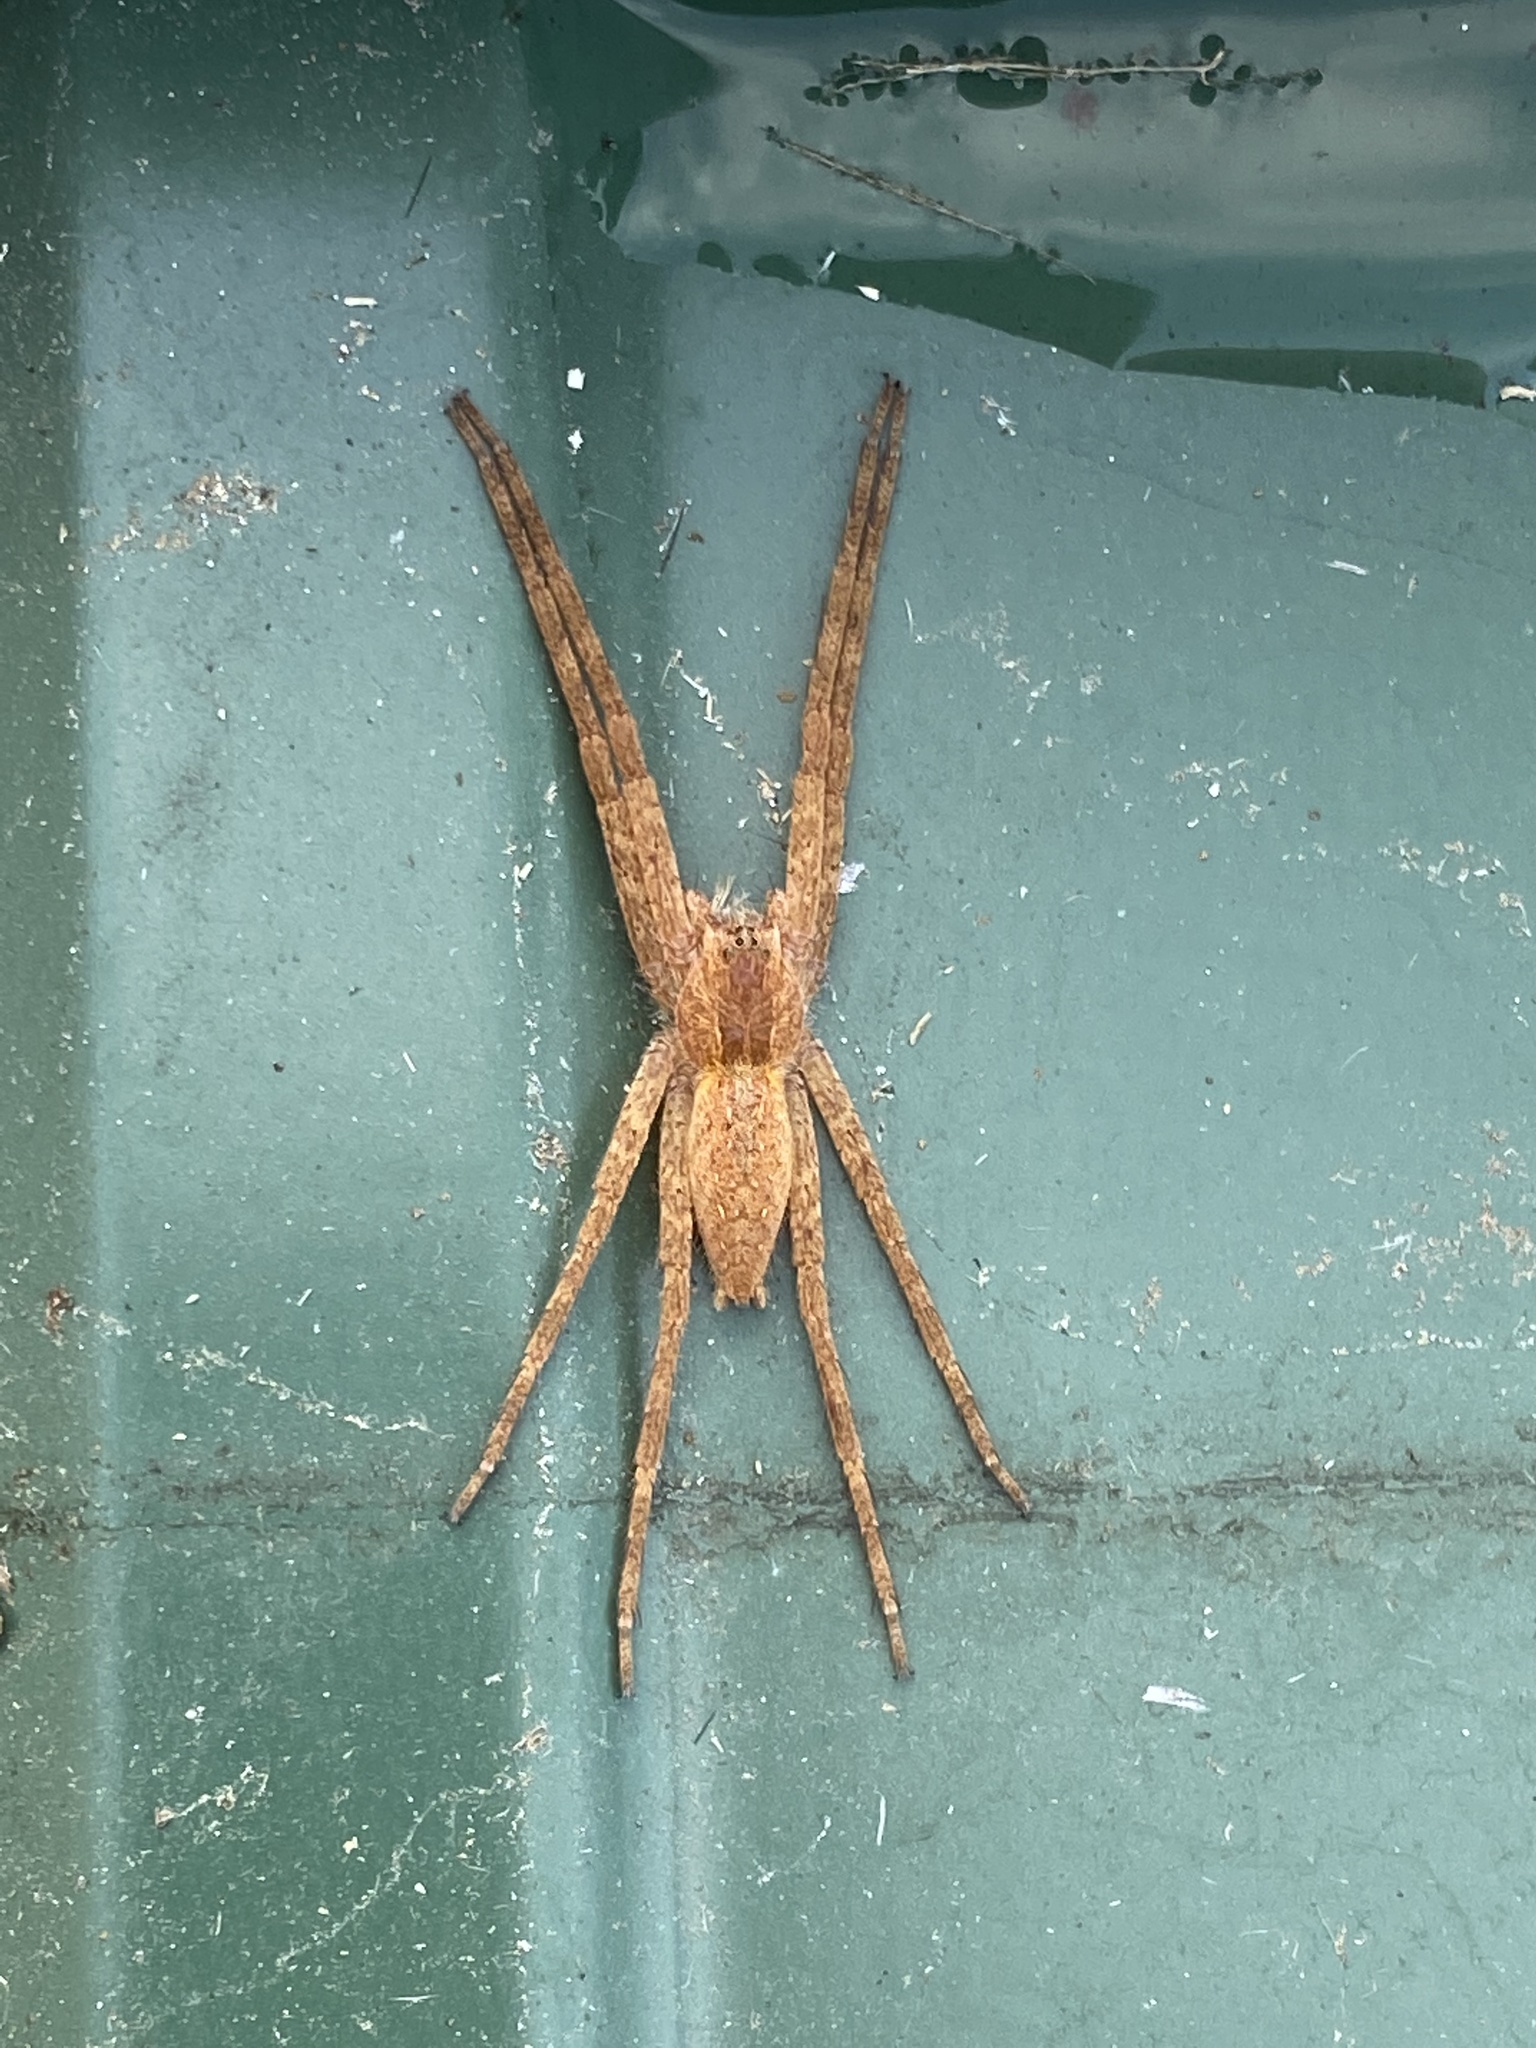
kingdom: Animalia
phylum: Arthropoda
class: Arachnida
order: Araneae
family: Pisauridae
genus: Pisaurina
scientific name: Pisaurina mira
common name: American nursery web spider
